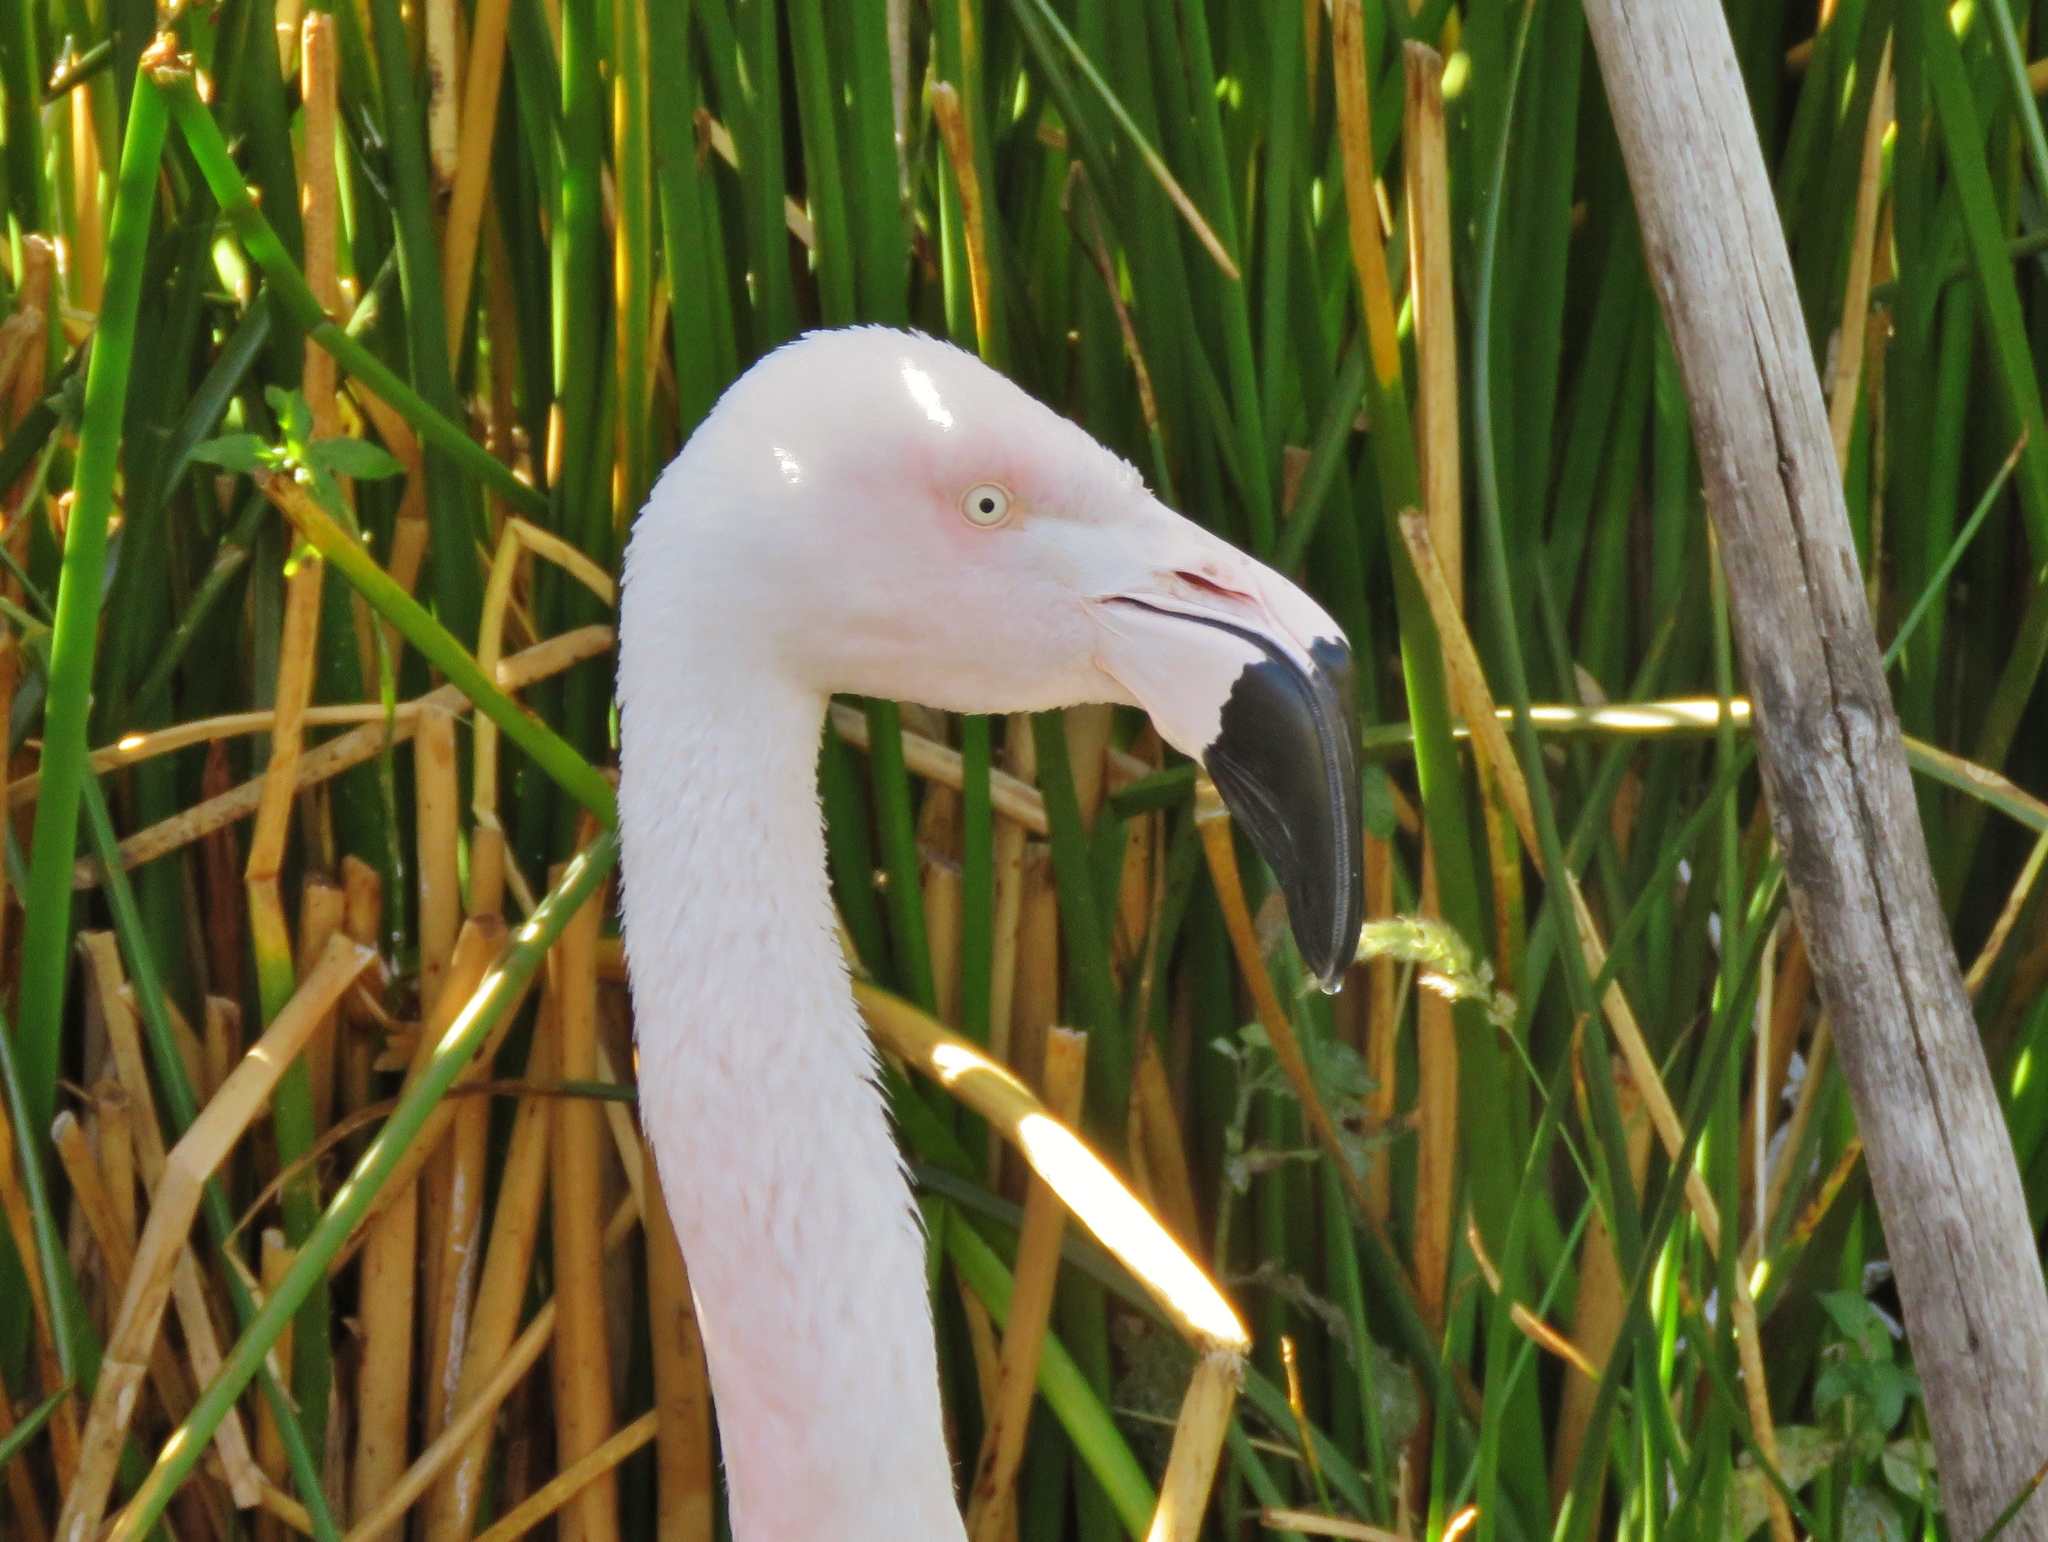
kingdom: Animalia
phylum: Chordata
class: Aves
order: Phoenicopteriformes
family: Phoenicopteridae
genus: Phoenicopterus
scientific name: Phoenicopterus chilensis
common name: Chilean flamingo
